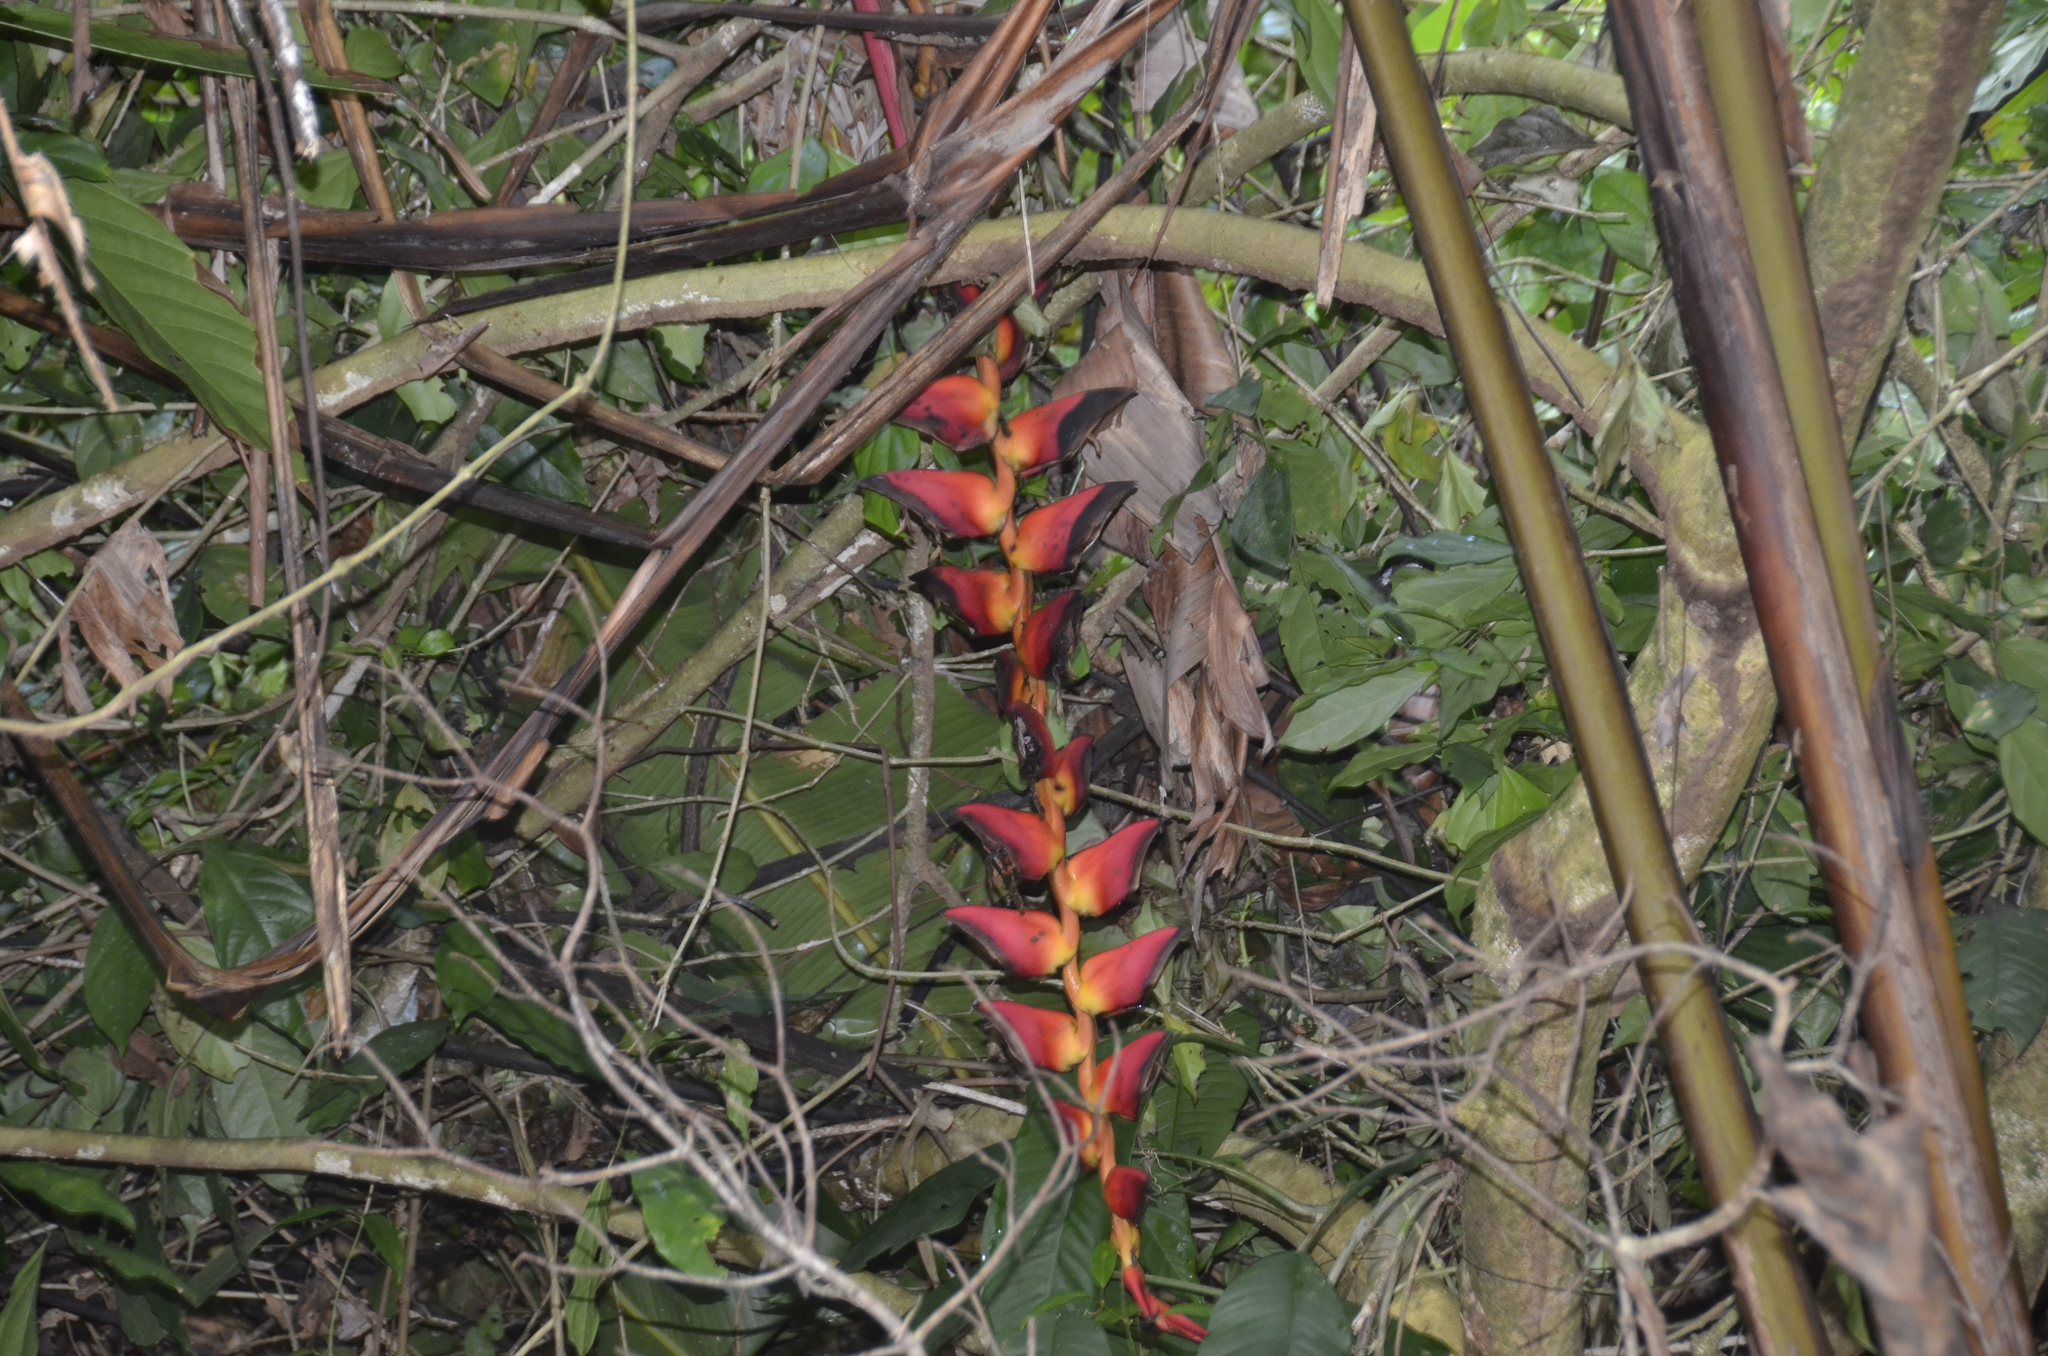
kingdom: Plantae
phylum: Tracheophyta
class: Liliopsida
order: Zingiberales
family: Heliconiaceae
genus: Heliconia
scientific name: Heliconia pogonantha
